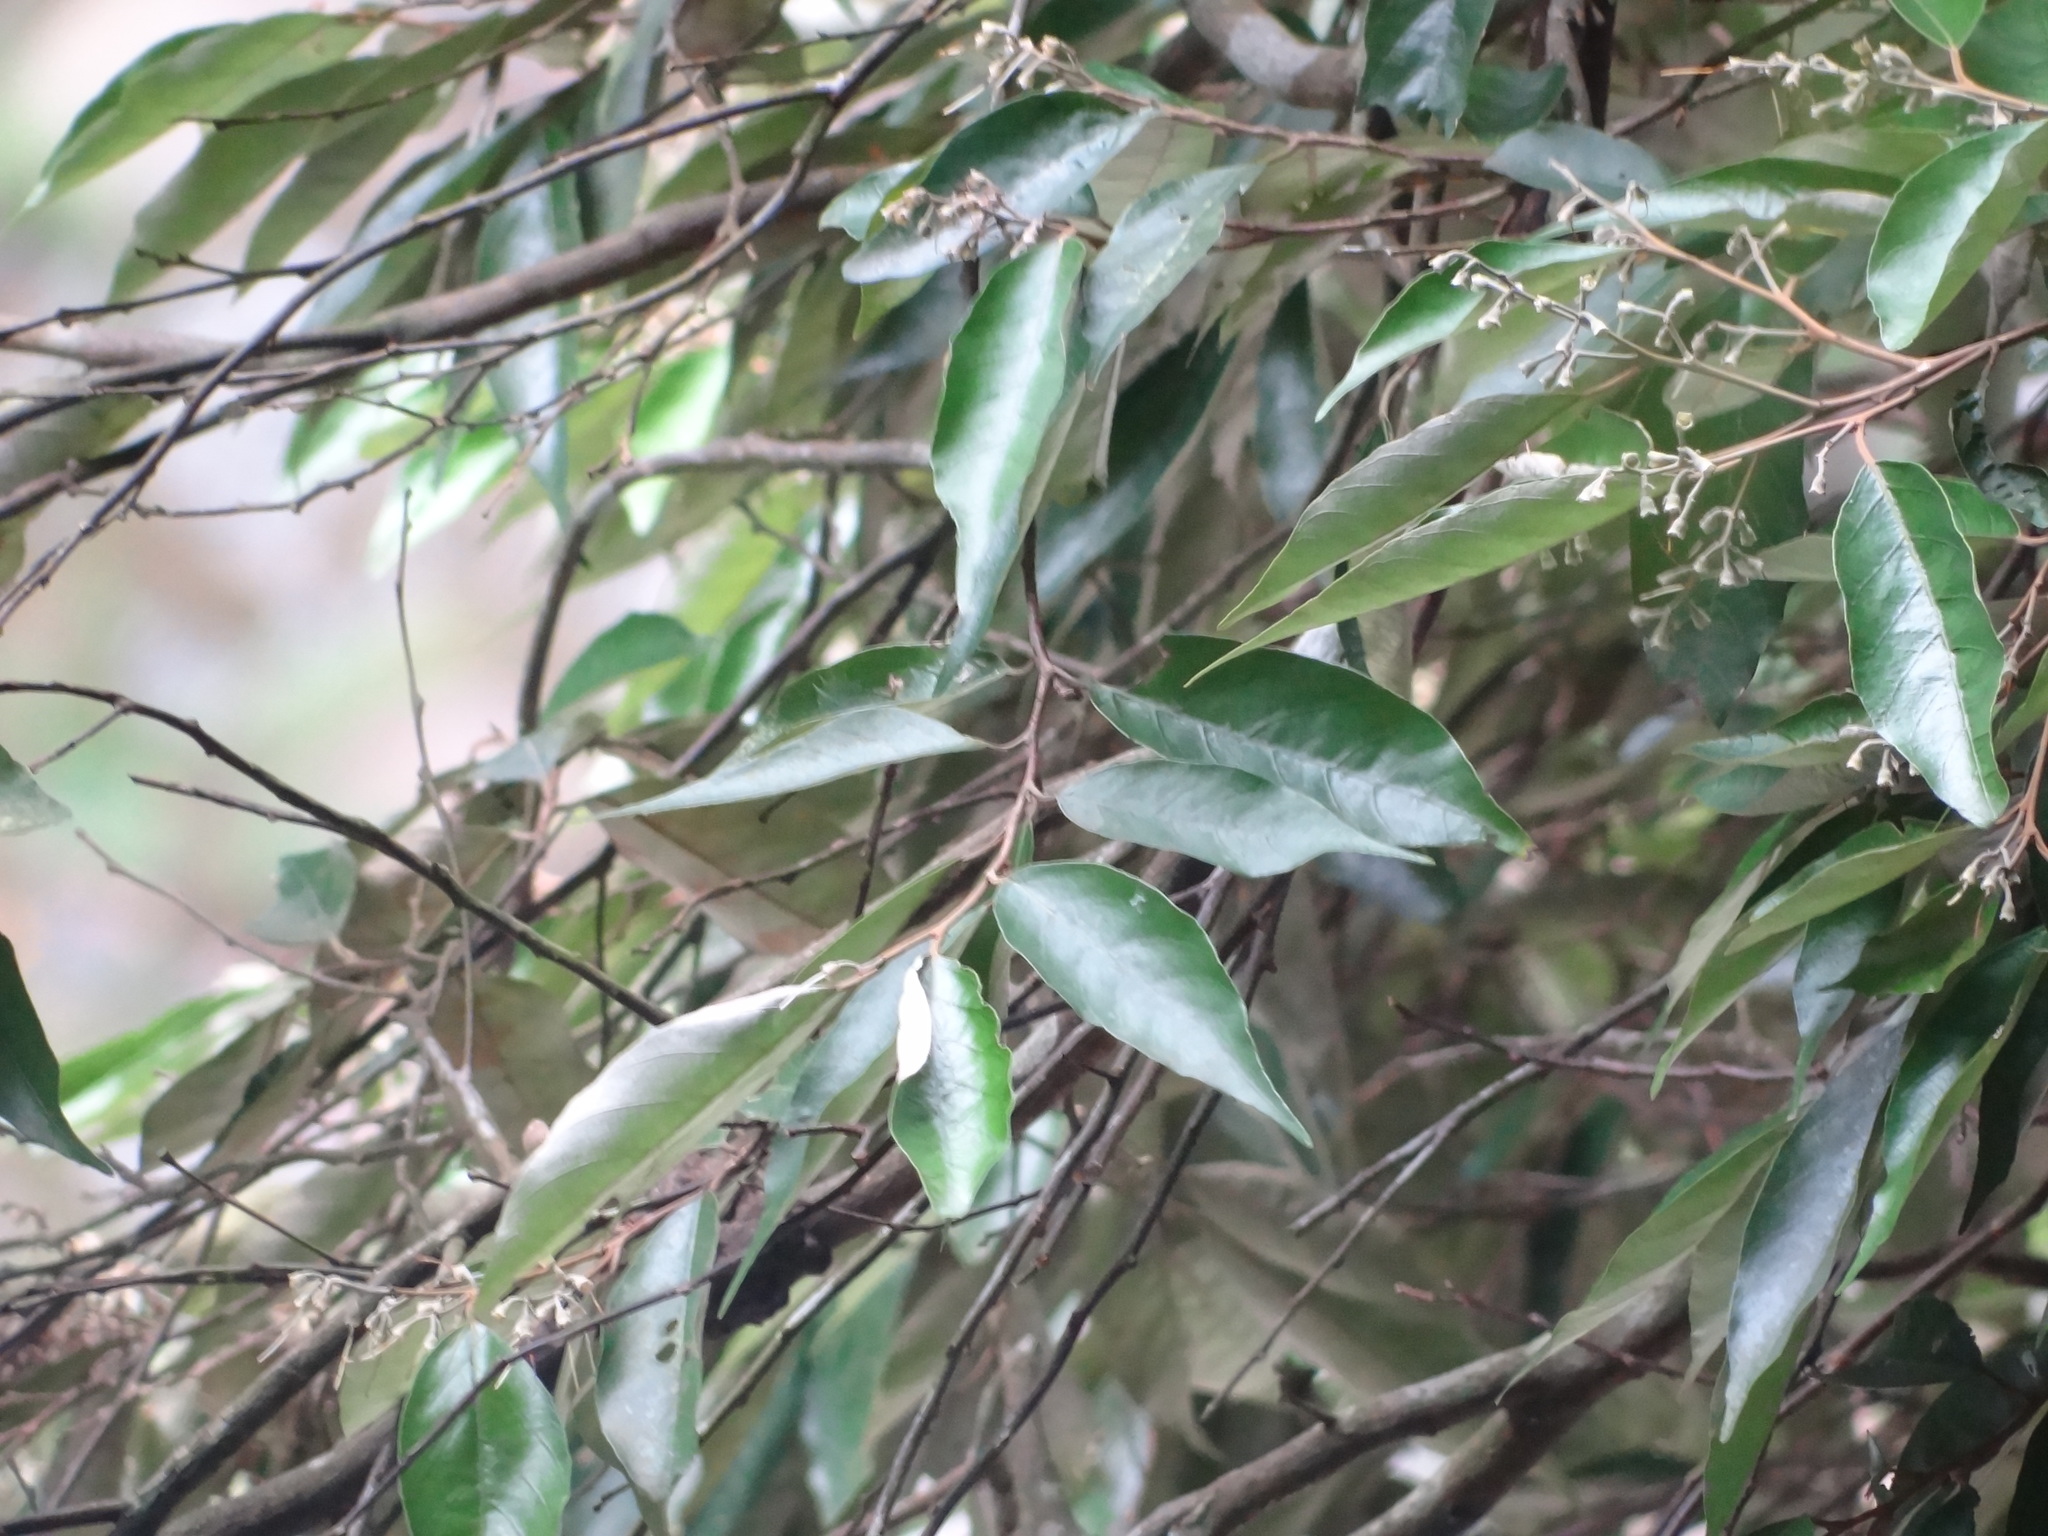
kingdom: Plantae
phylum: Tracheophyta
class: Magnoliopsida
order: Ericales
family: Styracaceae
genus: Styrax
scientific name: Styrax suberifolius
